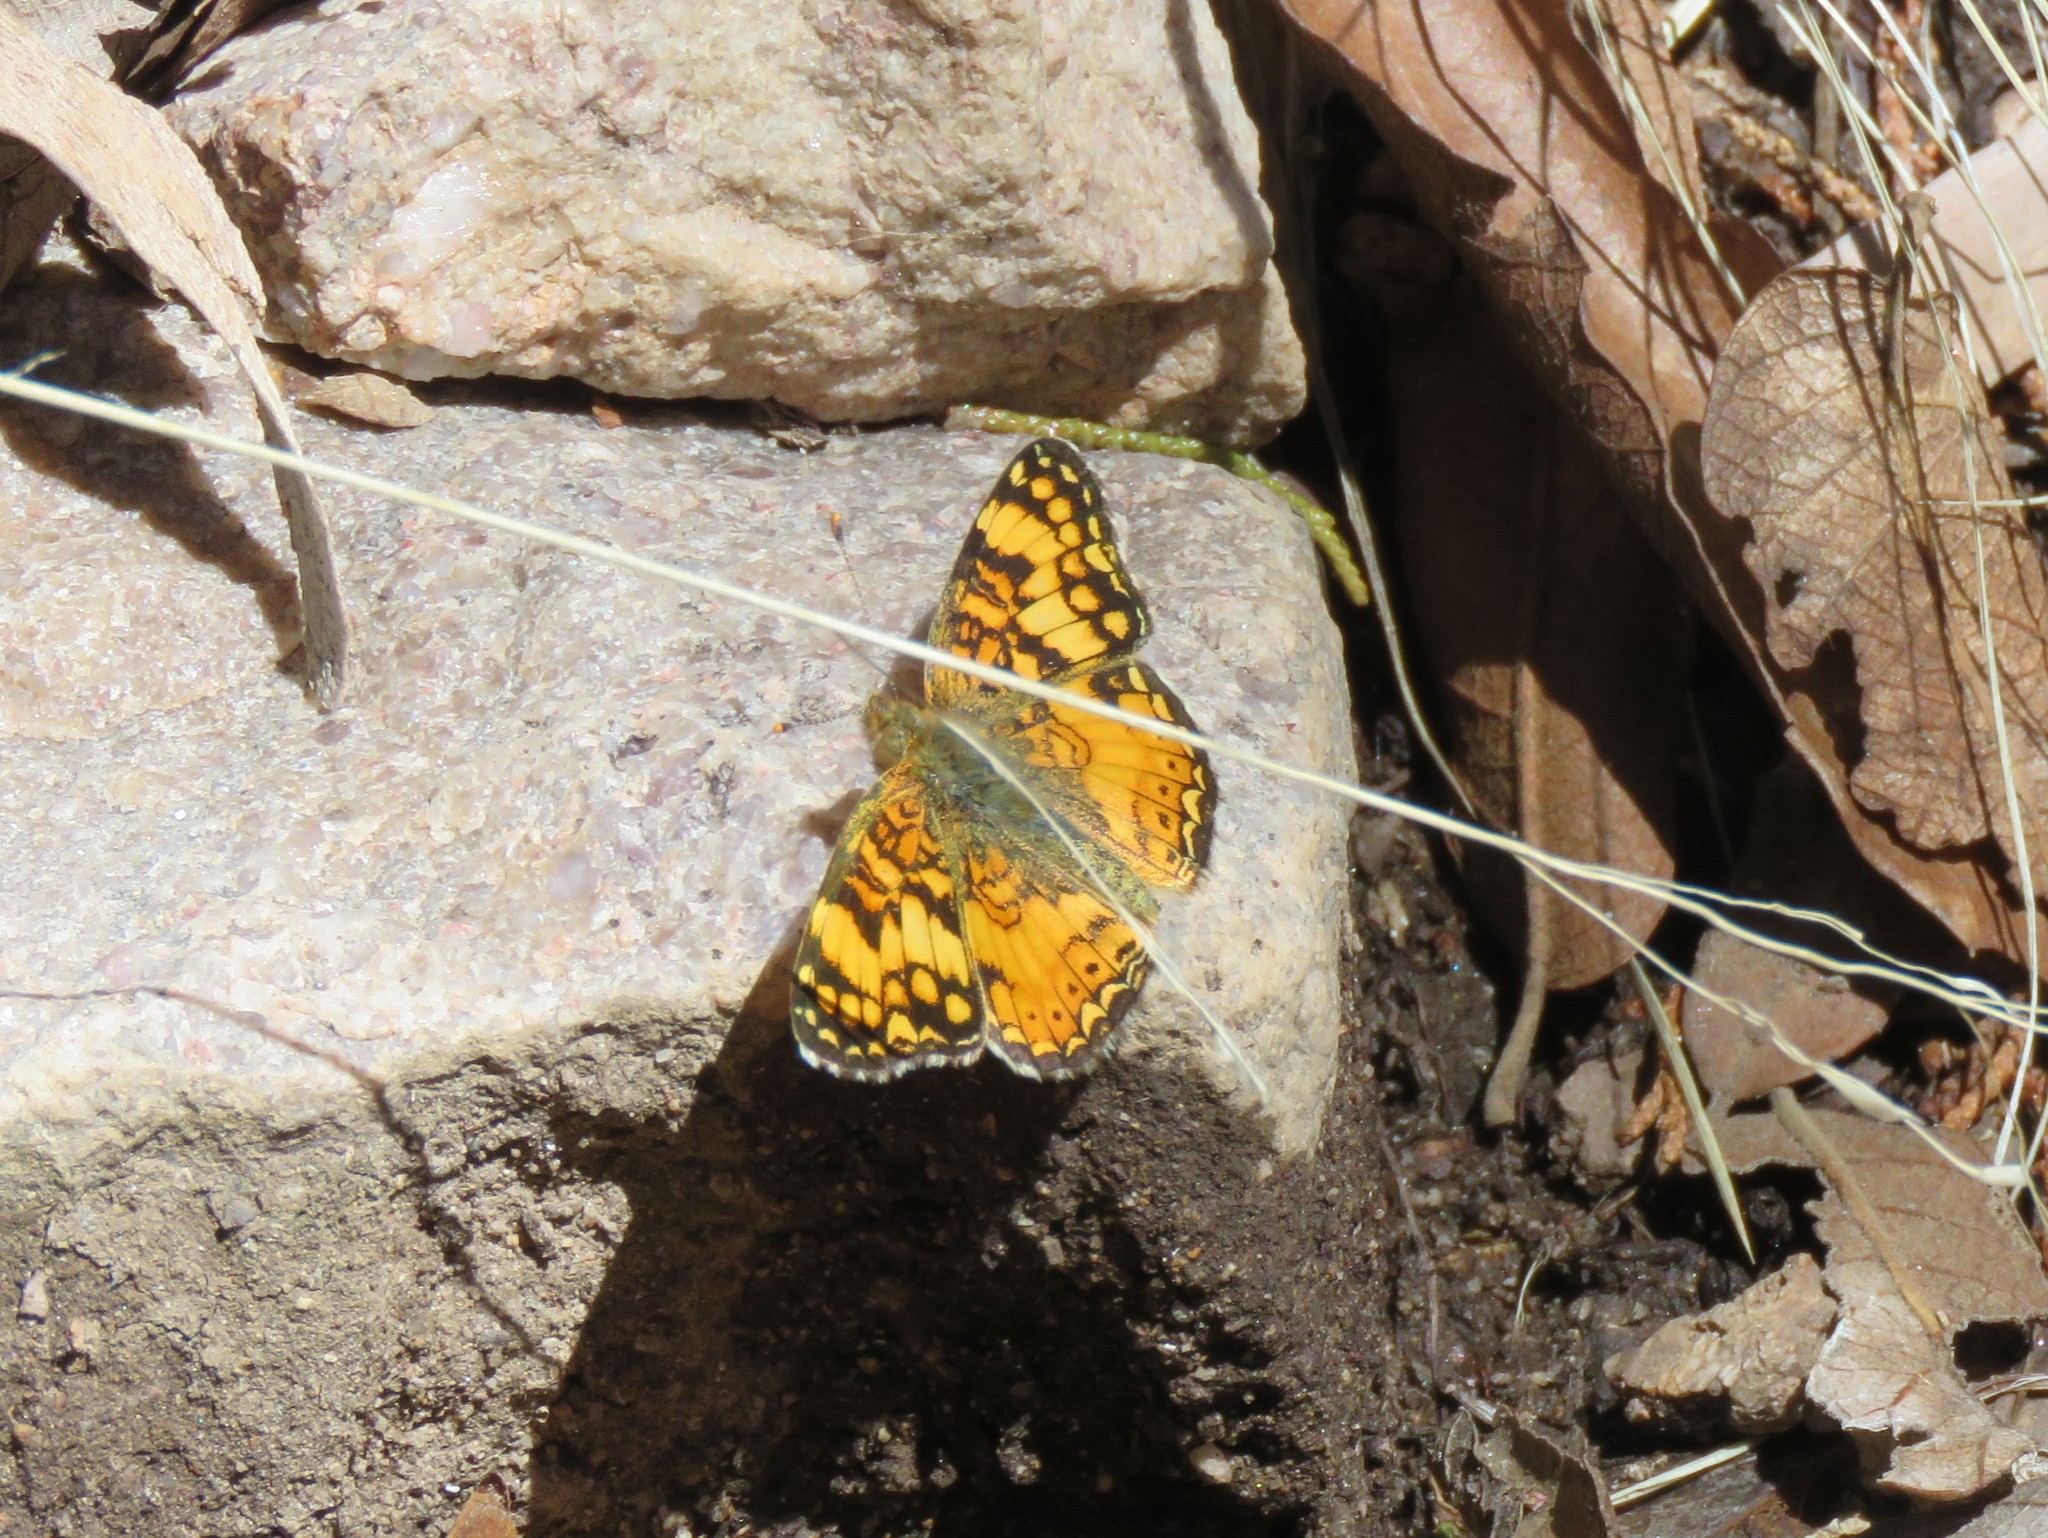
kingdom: Animalia
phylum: Arthropoda
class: Insecta
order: Lepidoptera
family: Nymphalidae
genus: Eresia
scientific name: Eresia aveyrona
